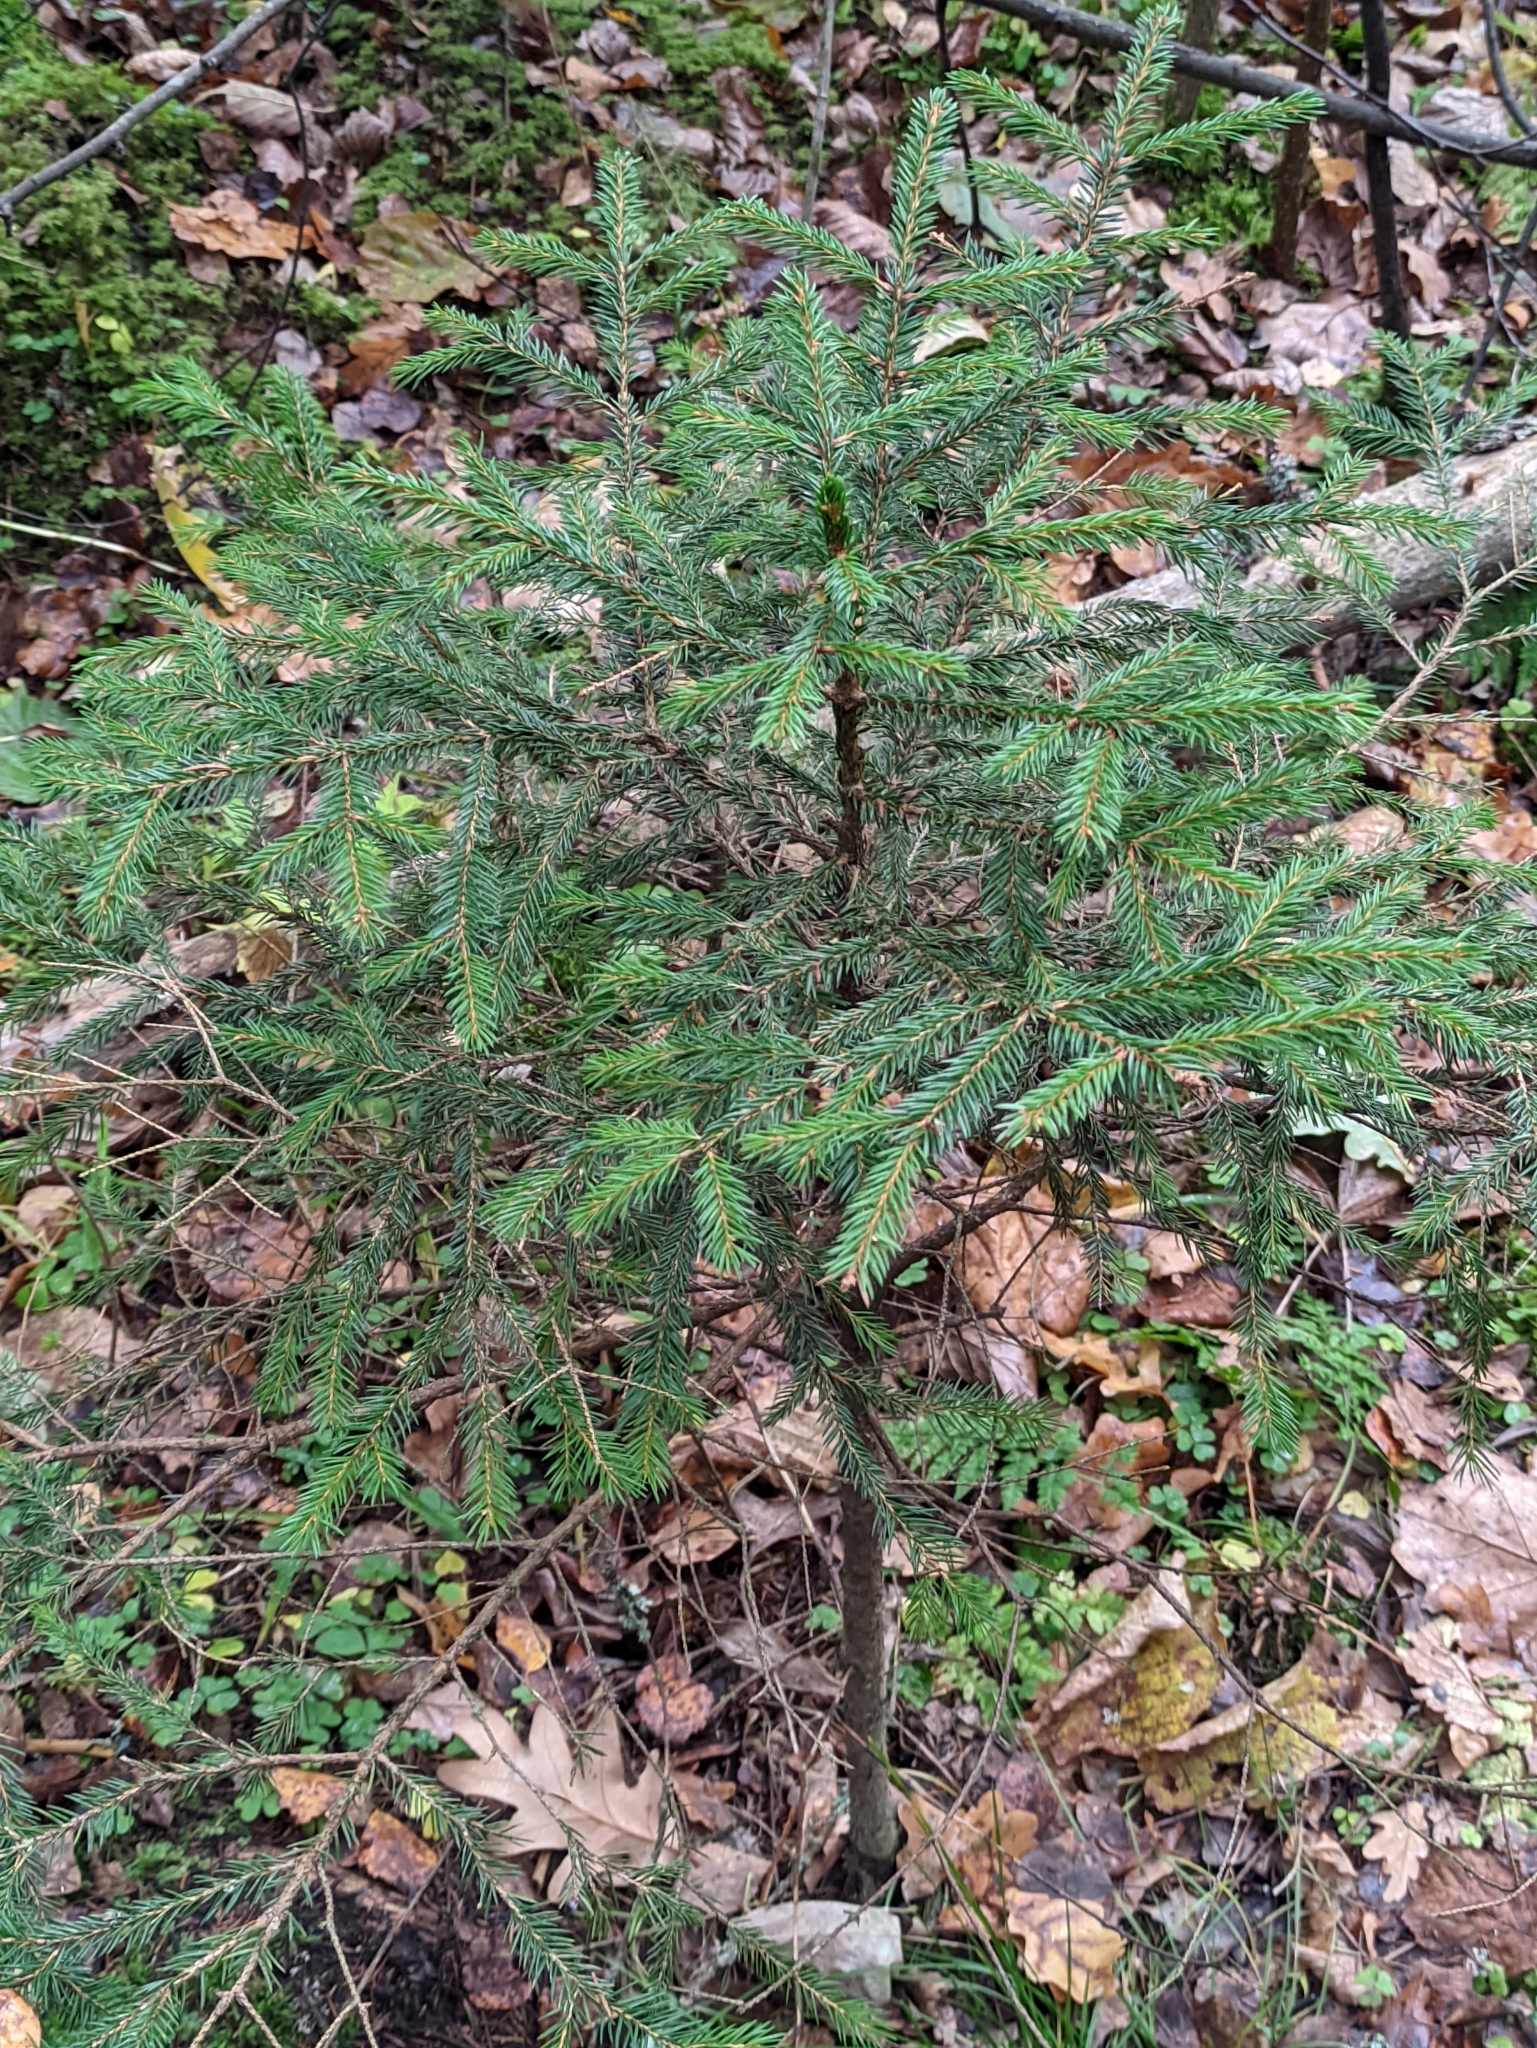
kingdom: Plantae
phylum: Tracheophyta
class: Pinopsida
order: Pinales
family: Pinaceae
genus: Picea
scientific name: Picea abies
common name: Norway spruce
